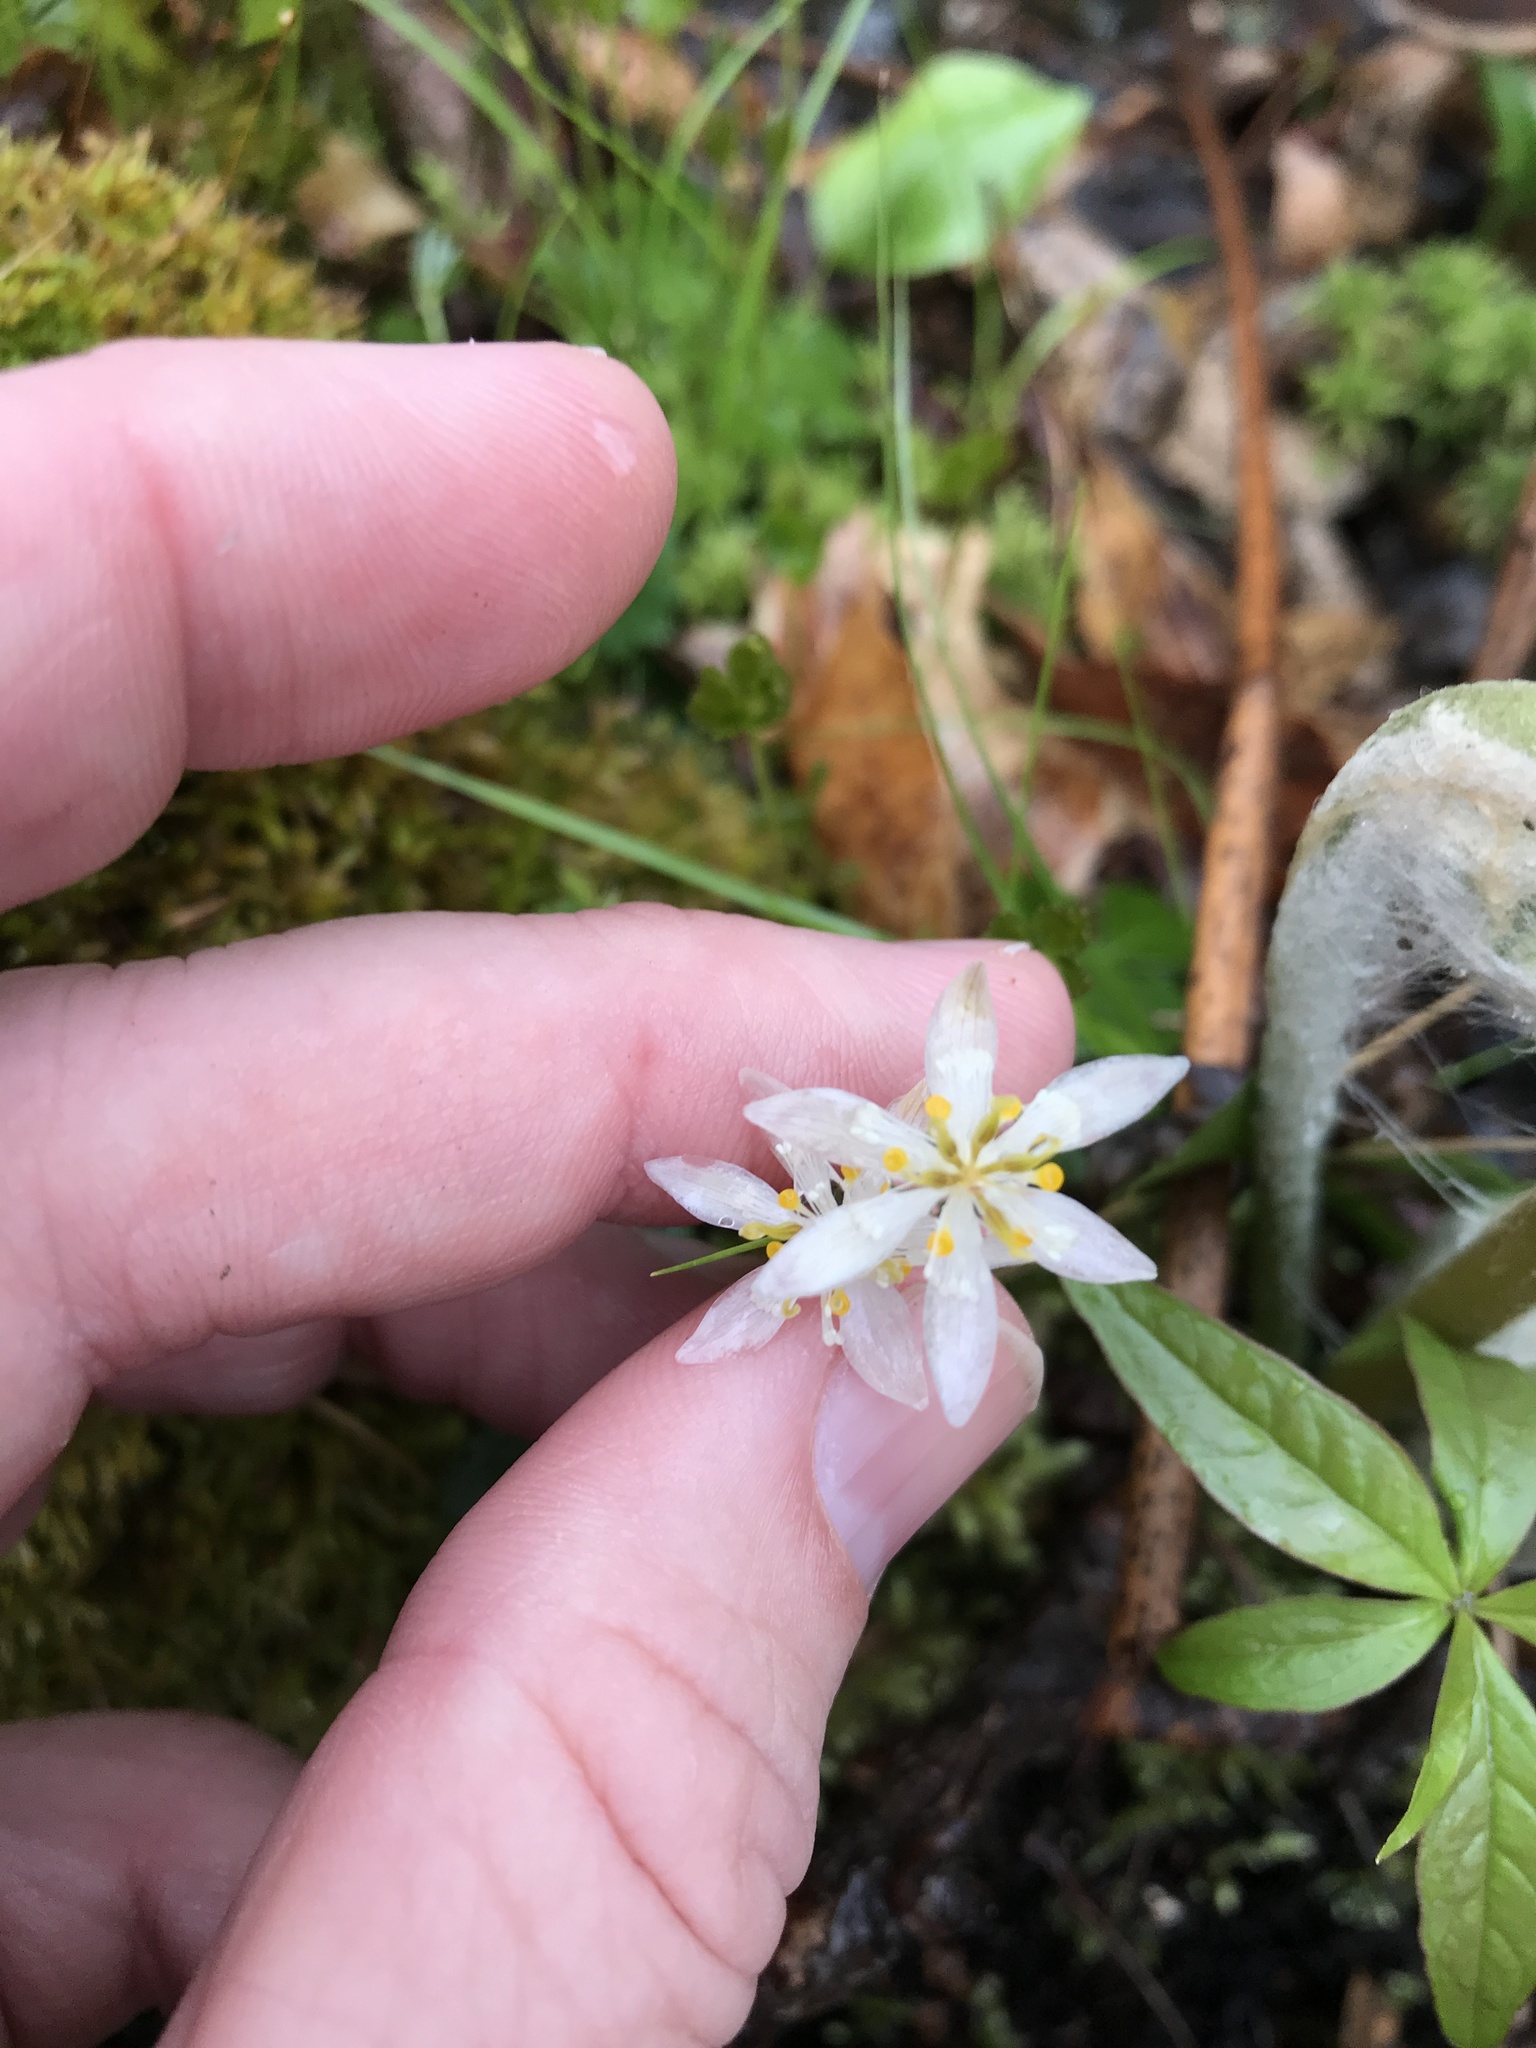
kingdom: Plantae
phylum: Tracheophyta
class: Magnoliopsida
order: Ranunculales
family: Ranunculaceae
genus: Coptis
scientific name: Coptis trifolia
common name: Canker-root
